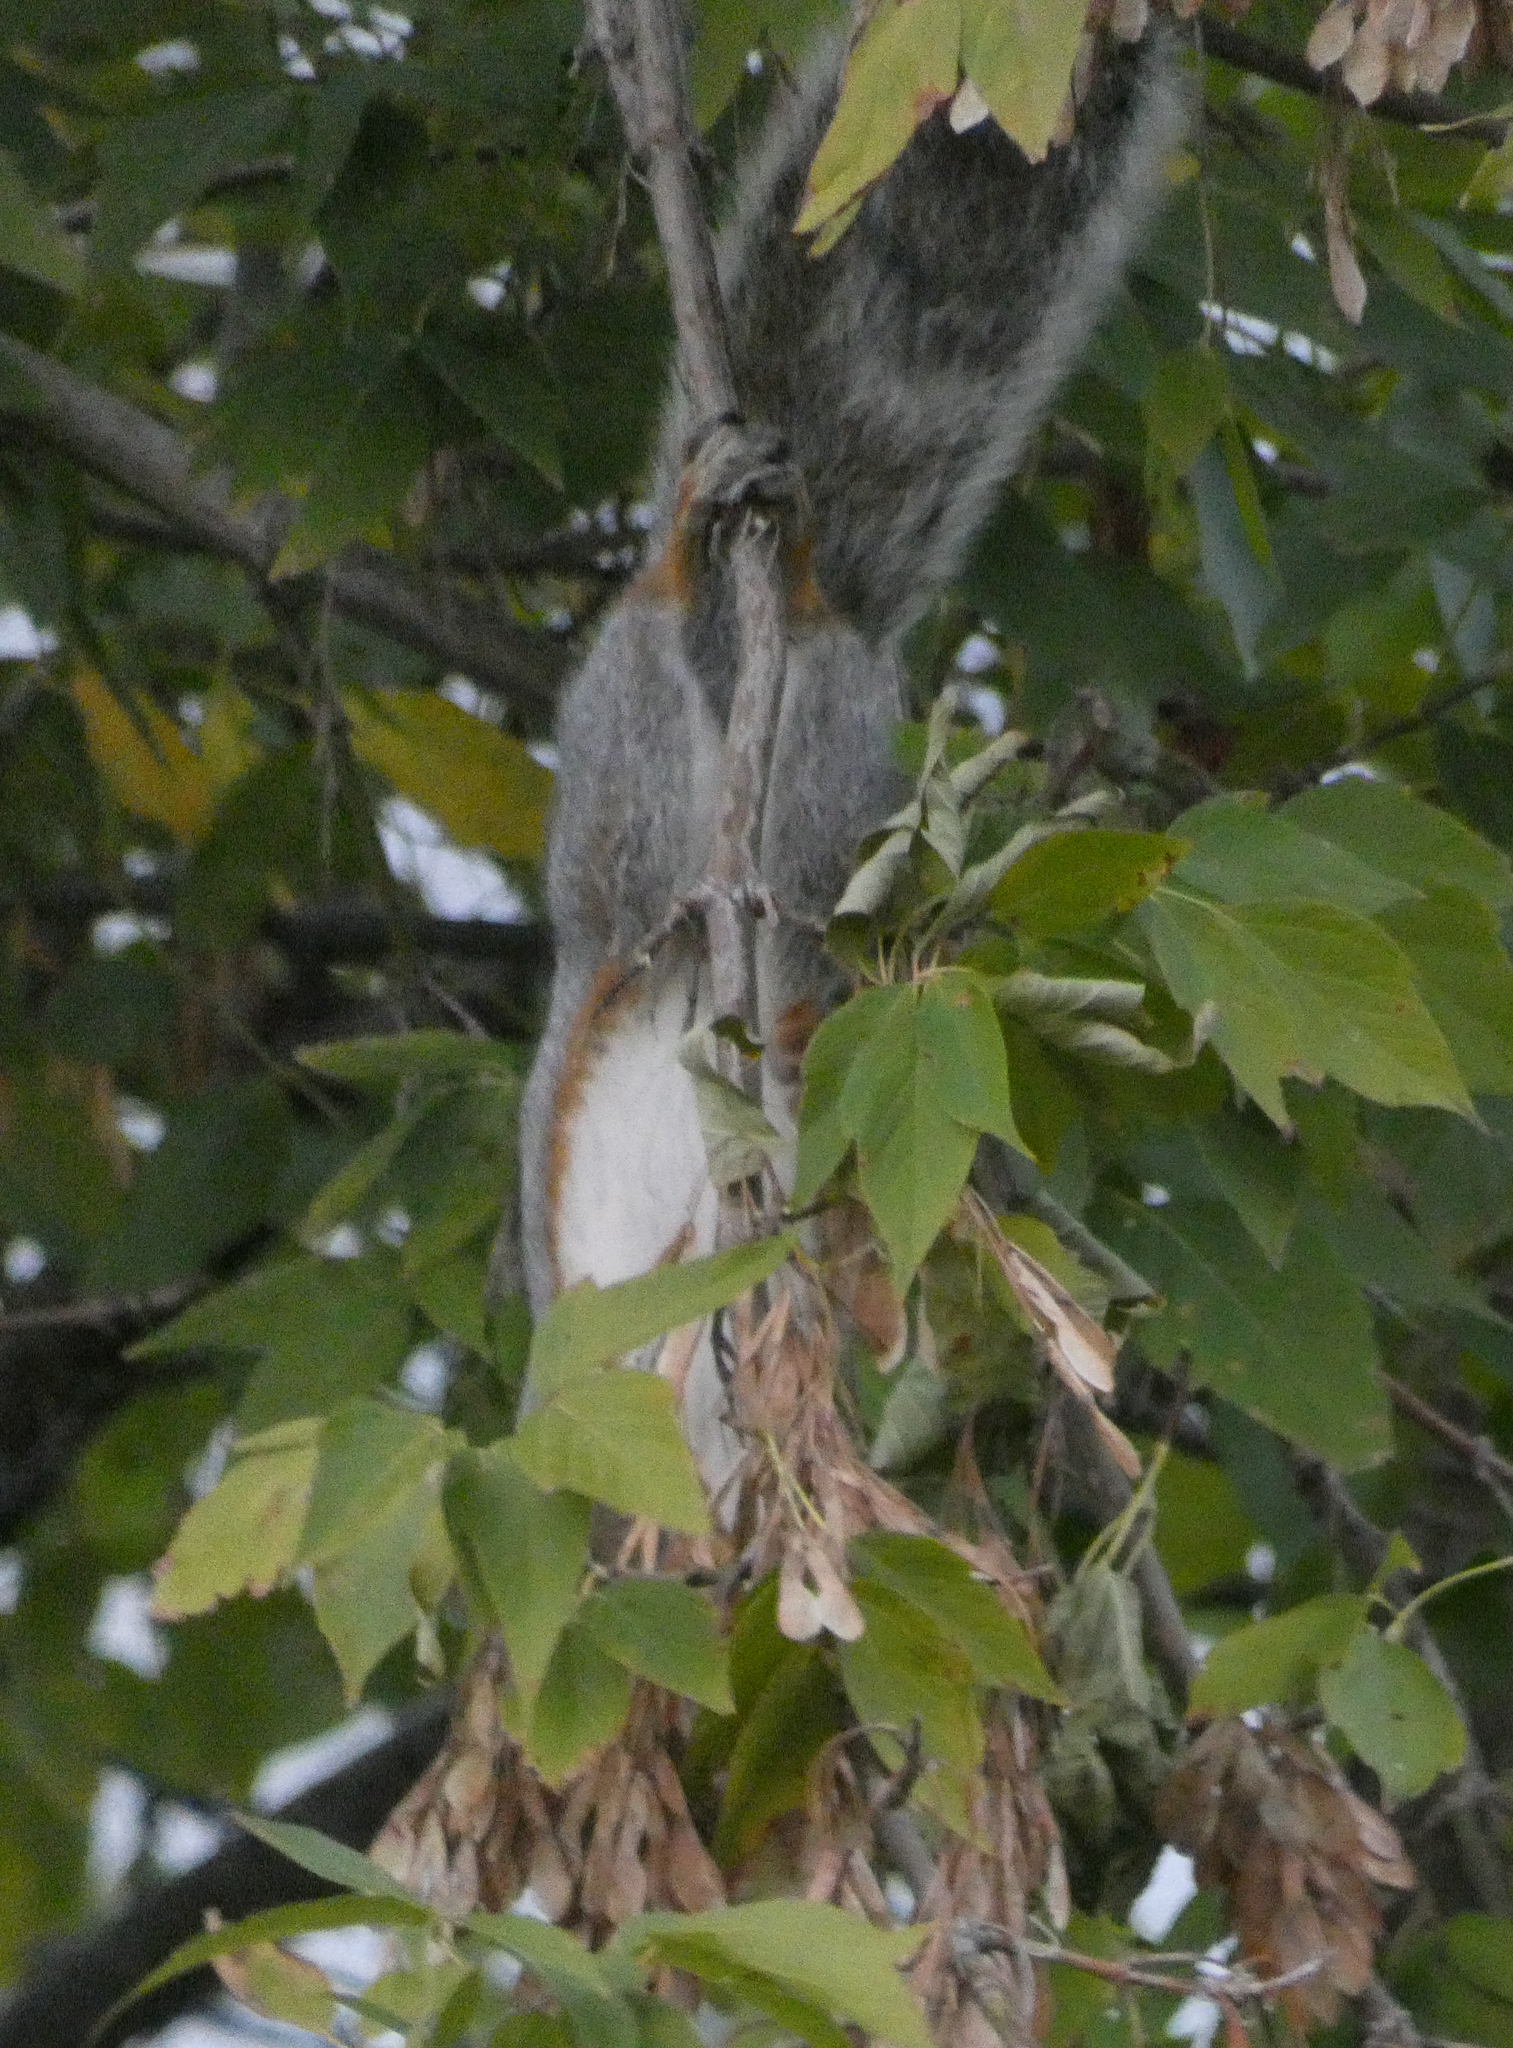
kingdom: Animalia
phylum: Chordata
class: Mammalia
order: Rodentia
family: Sciuridae
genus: Sciurus
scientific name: Sciurus carolinensis
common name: Eastern gray squirrel
